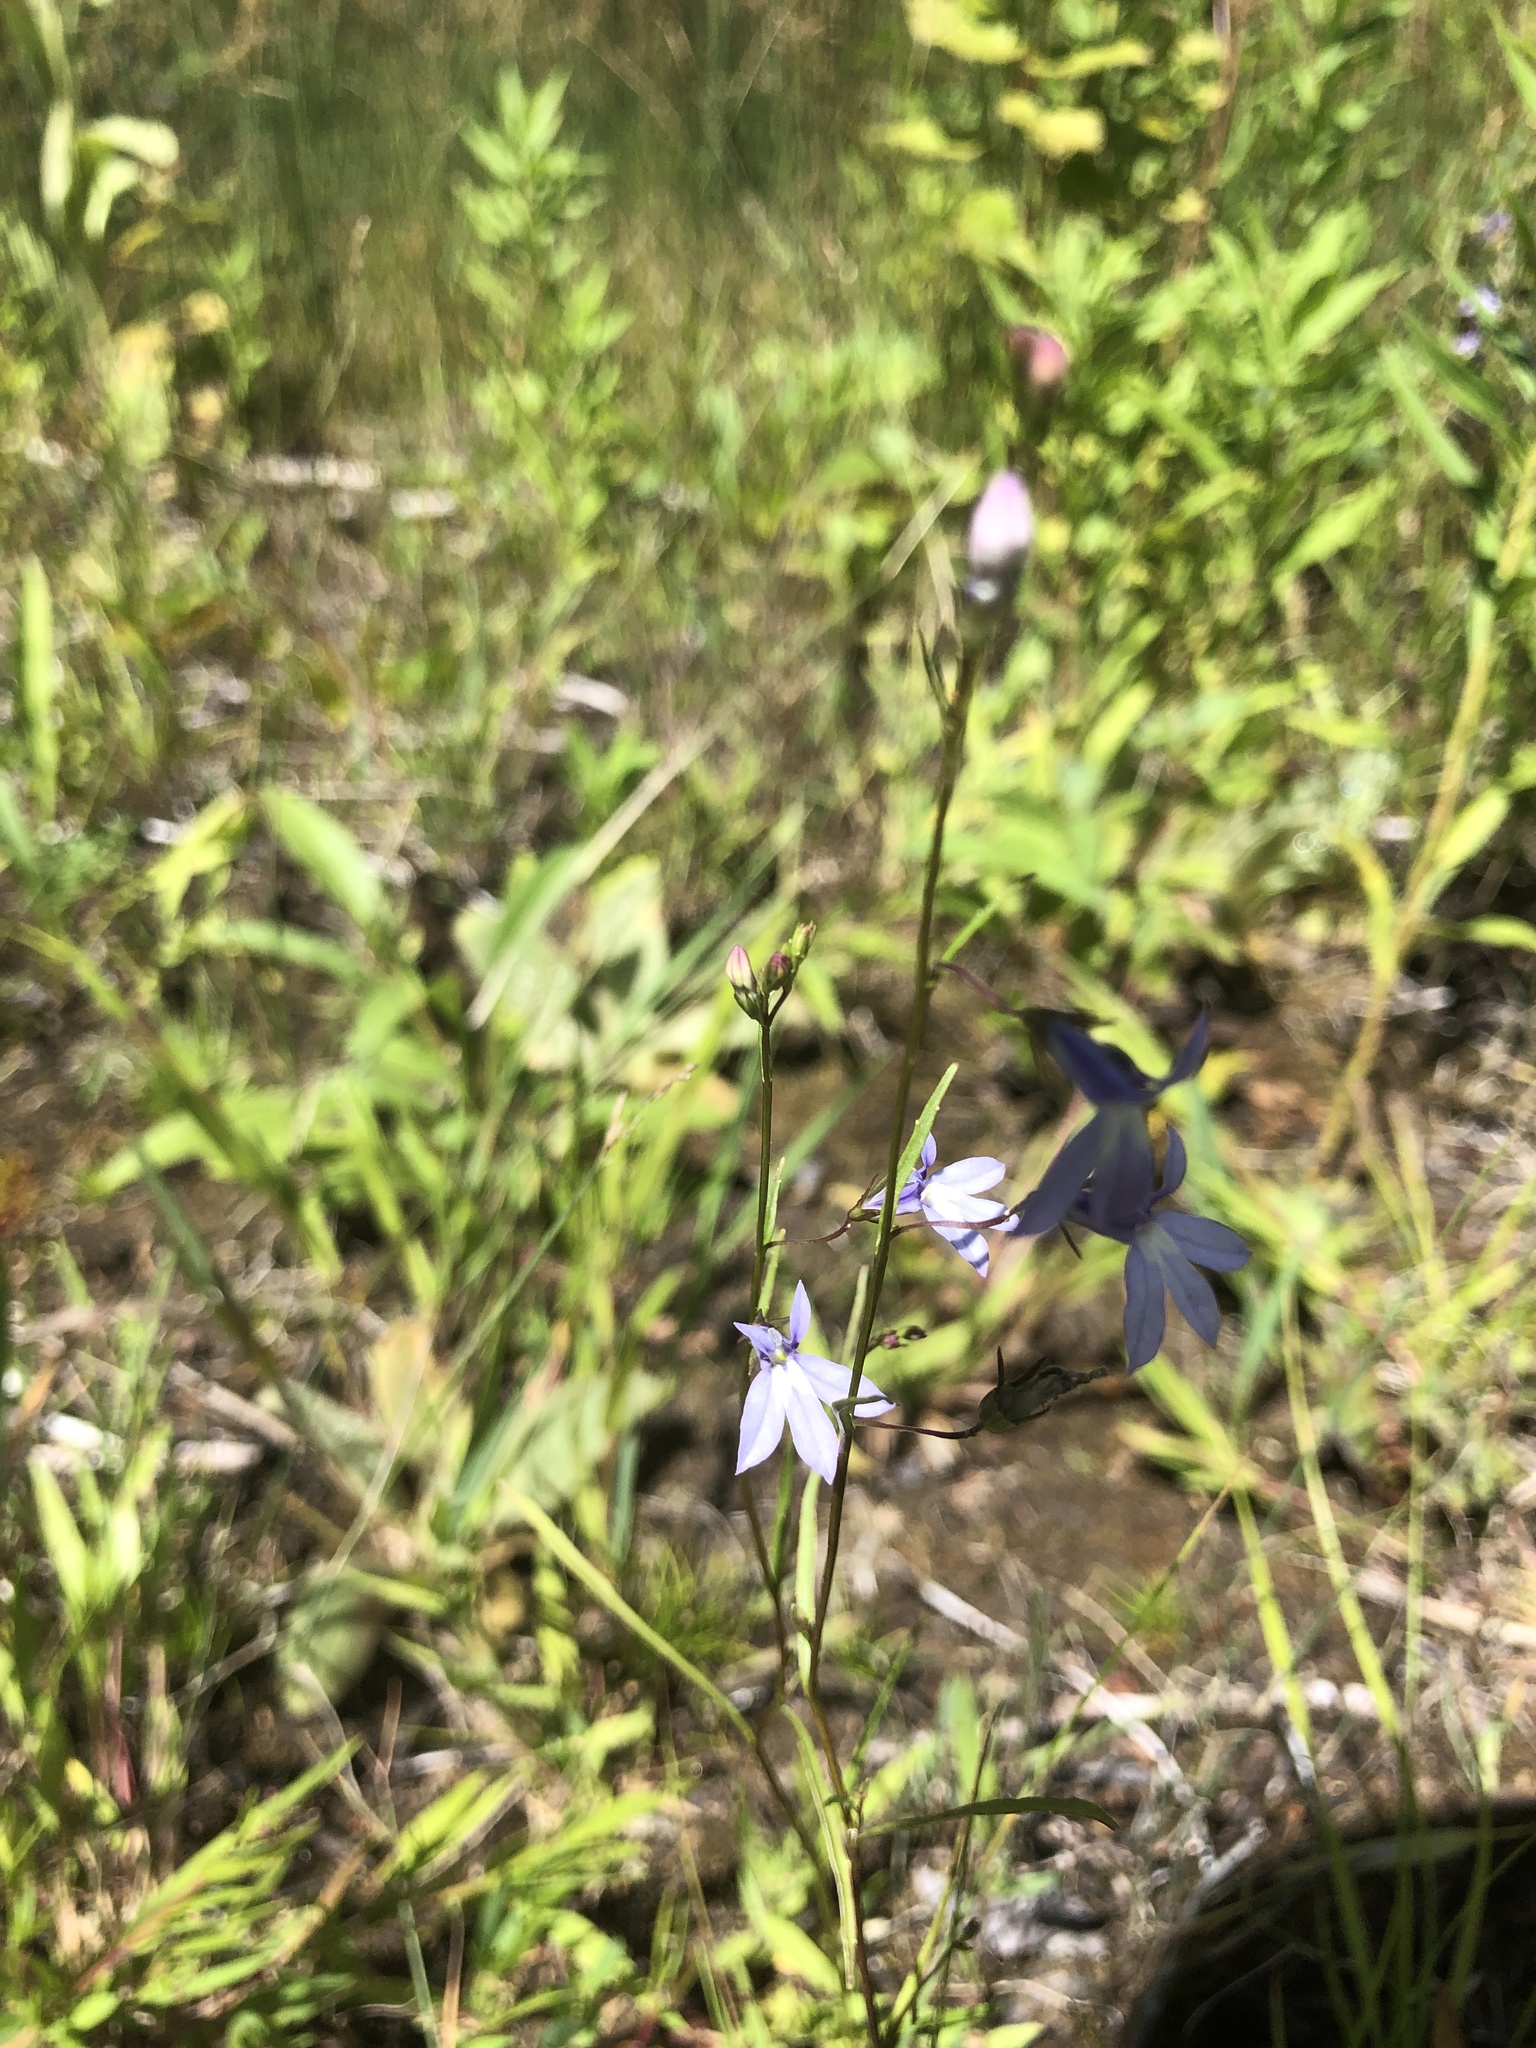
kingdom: Plantae
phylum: Tracheophyta
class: Magnoliopsida
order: Asterales
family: Campanulaceae
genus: Lobelia
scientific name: Lobelia kalmii
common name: Kalm's lobelia
